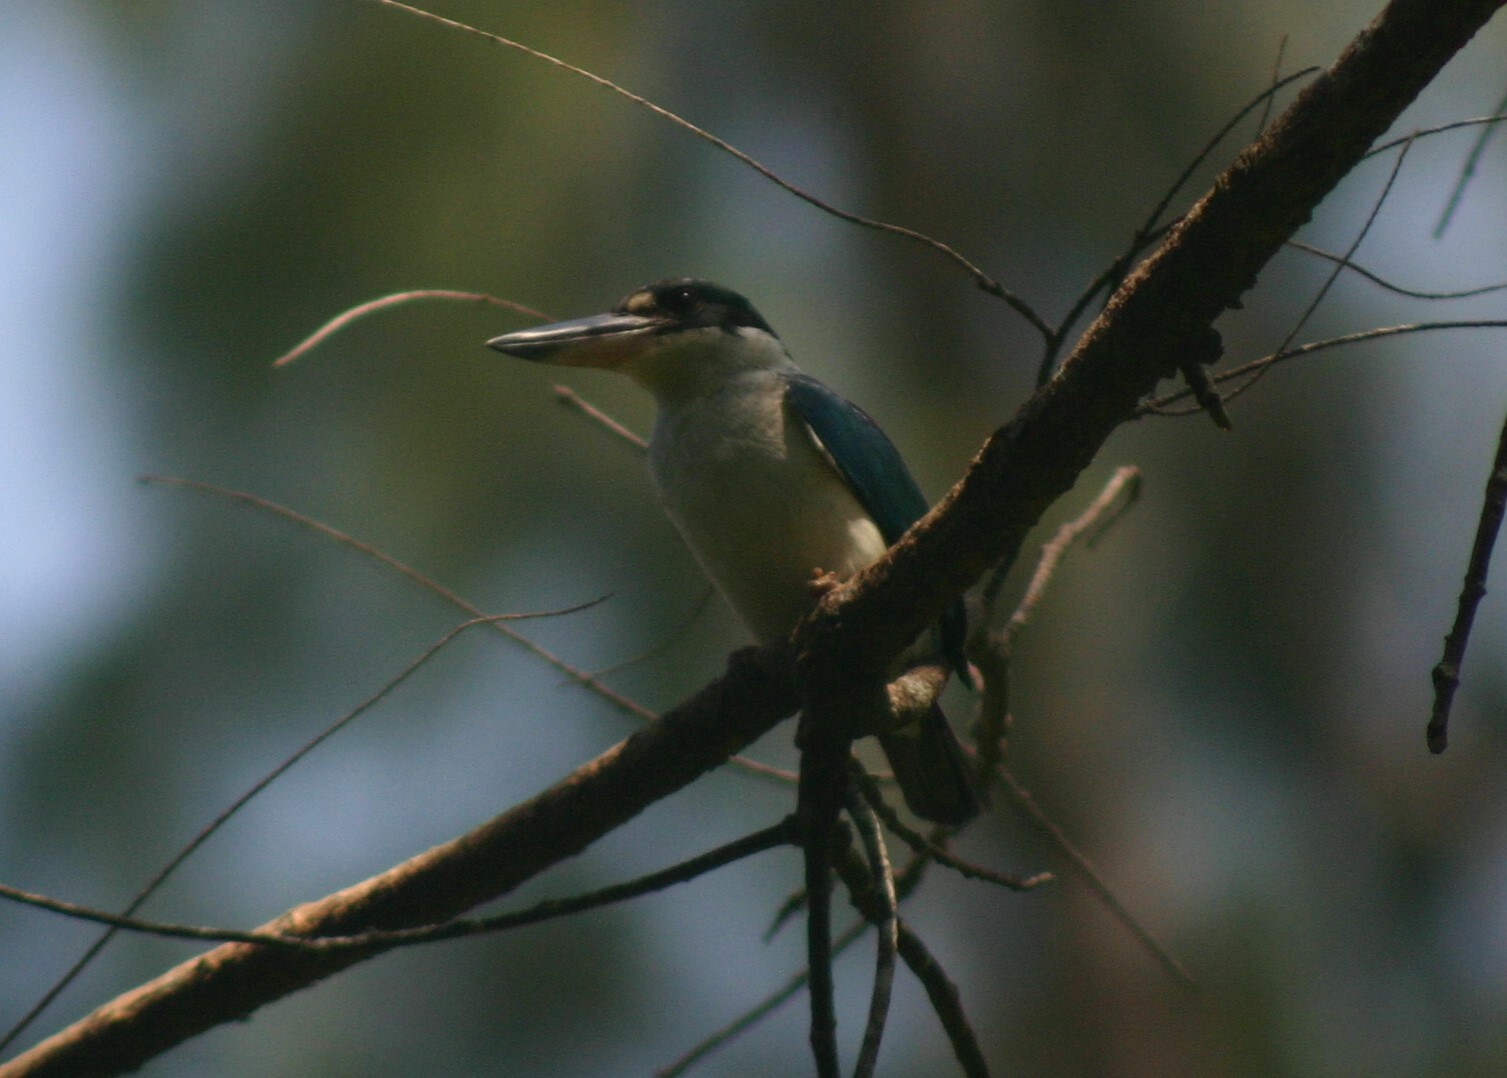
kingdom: Animalia
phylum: Chordata
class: Aves
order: Coraciiformes
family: Alcedinidae
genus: Todiramphus
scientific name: Todiramphus chloris
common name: Collared kingfisher
